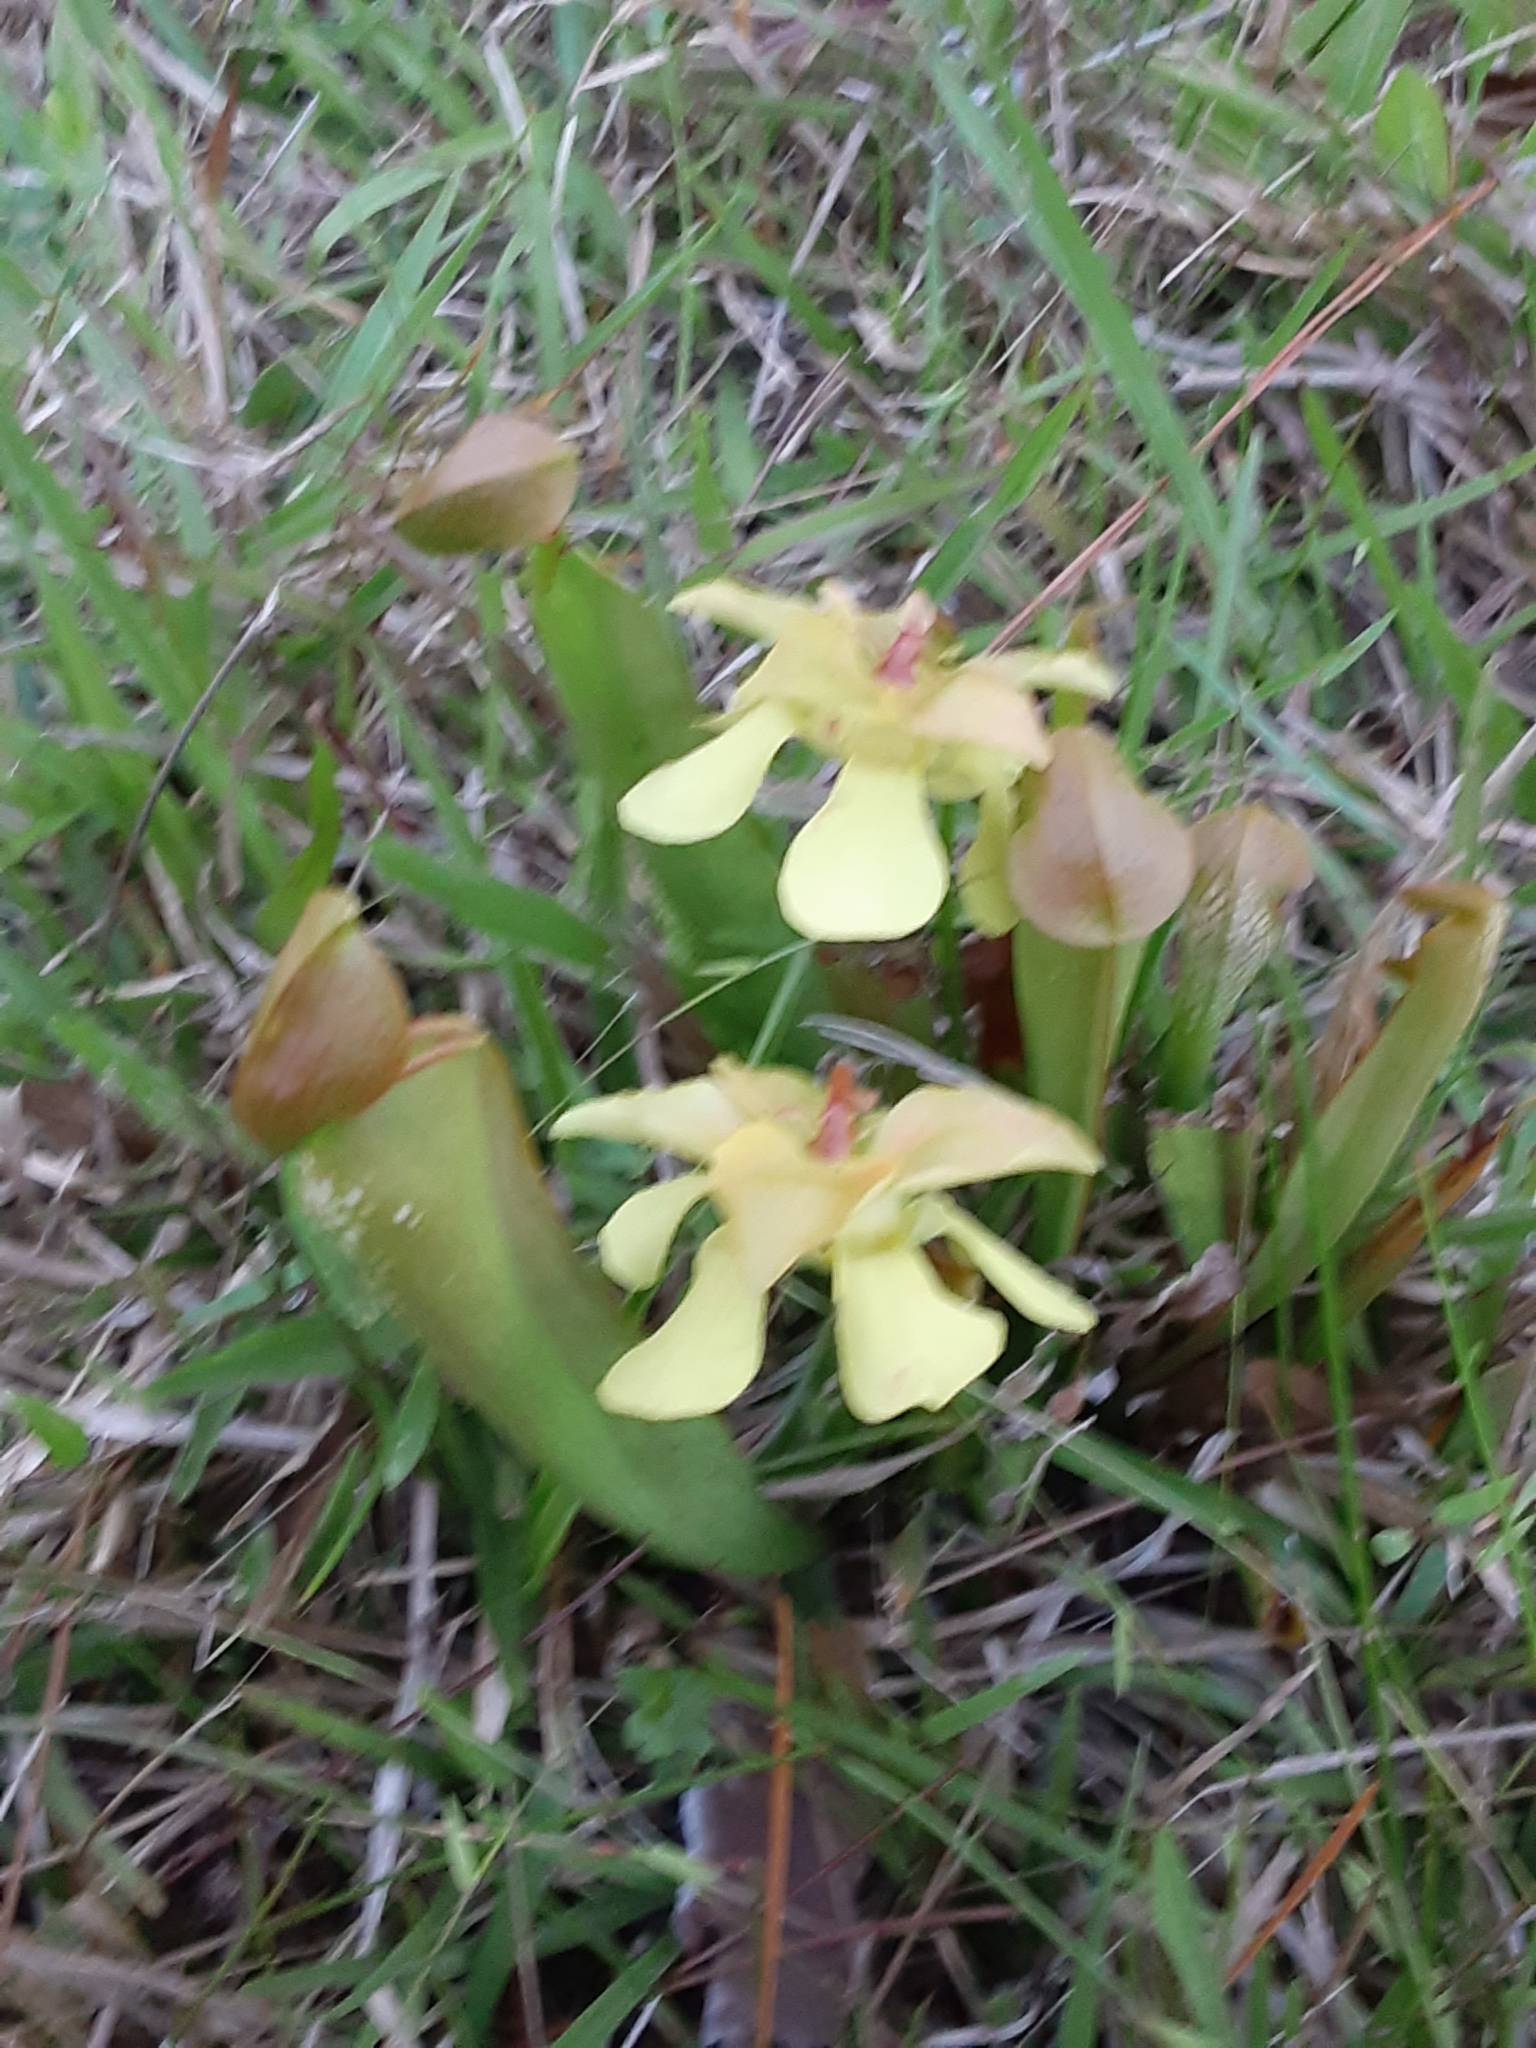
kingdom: Plantae
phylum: Tracheophyta
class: Magnoliopsida
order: Ericales
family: Sarraceniaceae
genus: Sarracenia
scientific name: Sarracenia minor
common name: Rainhat-trumpet
